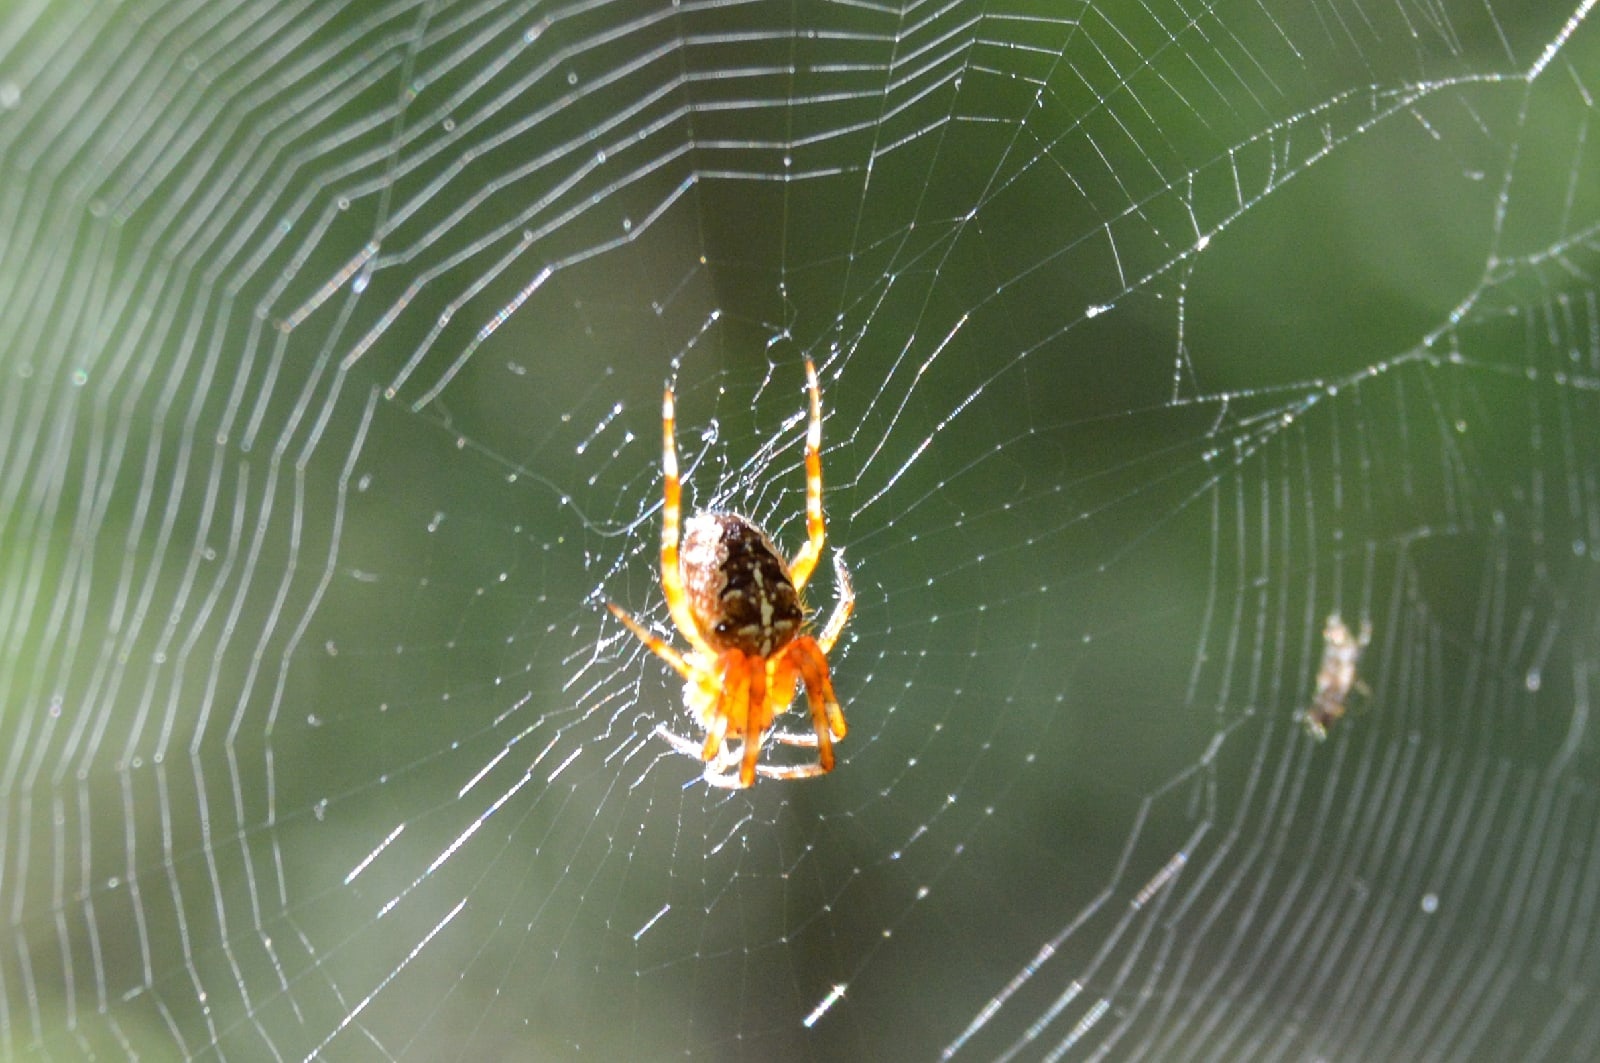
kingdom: Animalia
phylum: Arthropoda
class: Arachnida
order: Araneae
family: Araneidae
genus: Araneus
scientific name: Araneus diadematus
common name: Cross orbweaver
